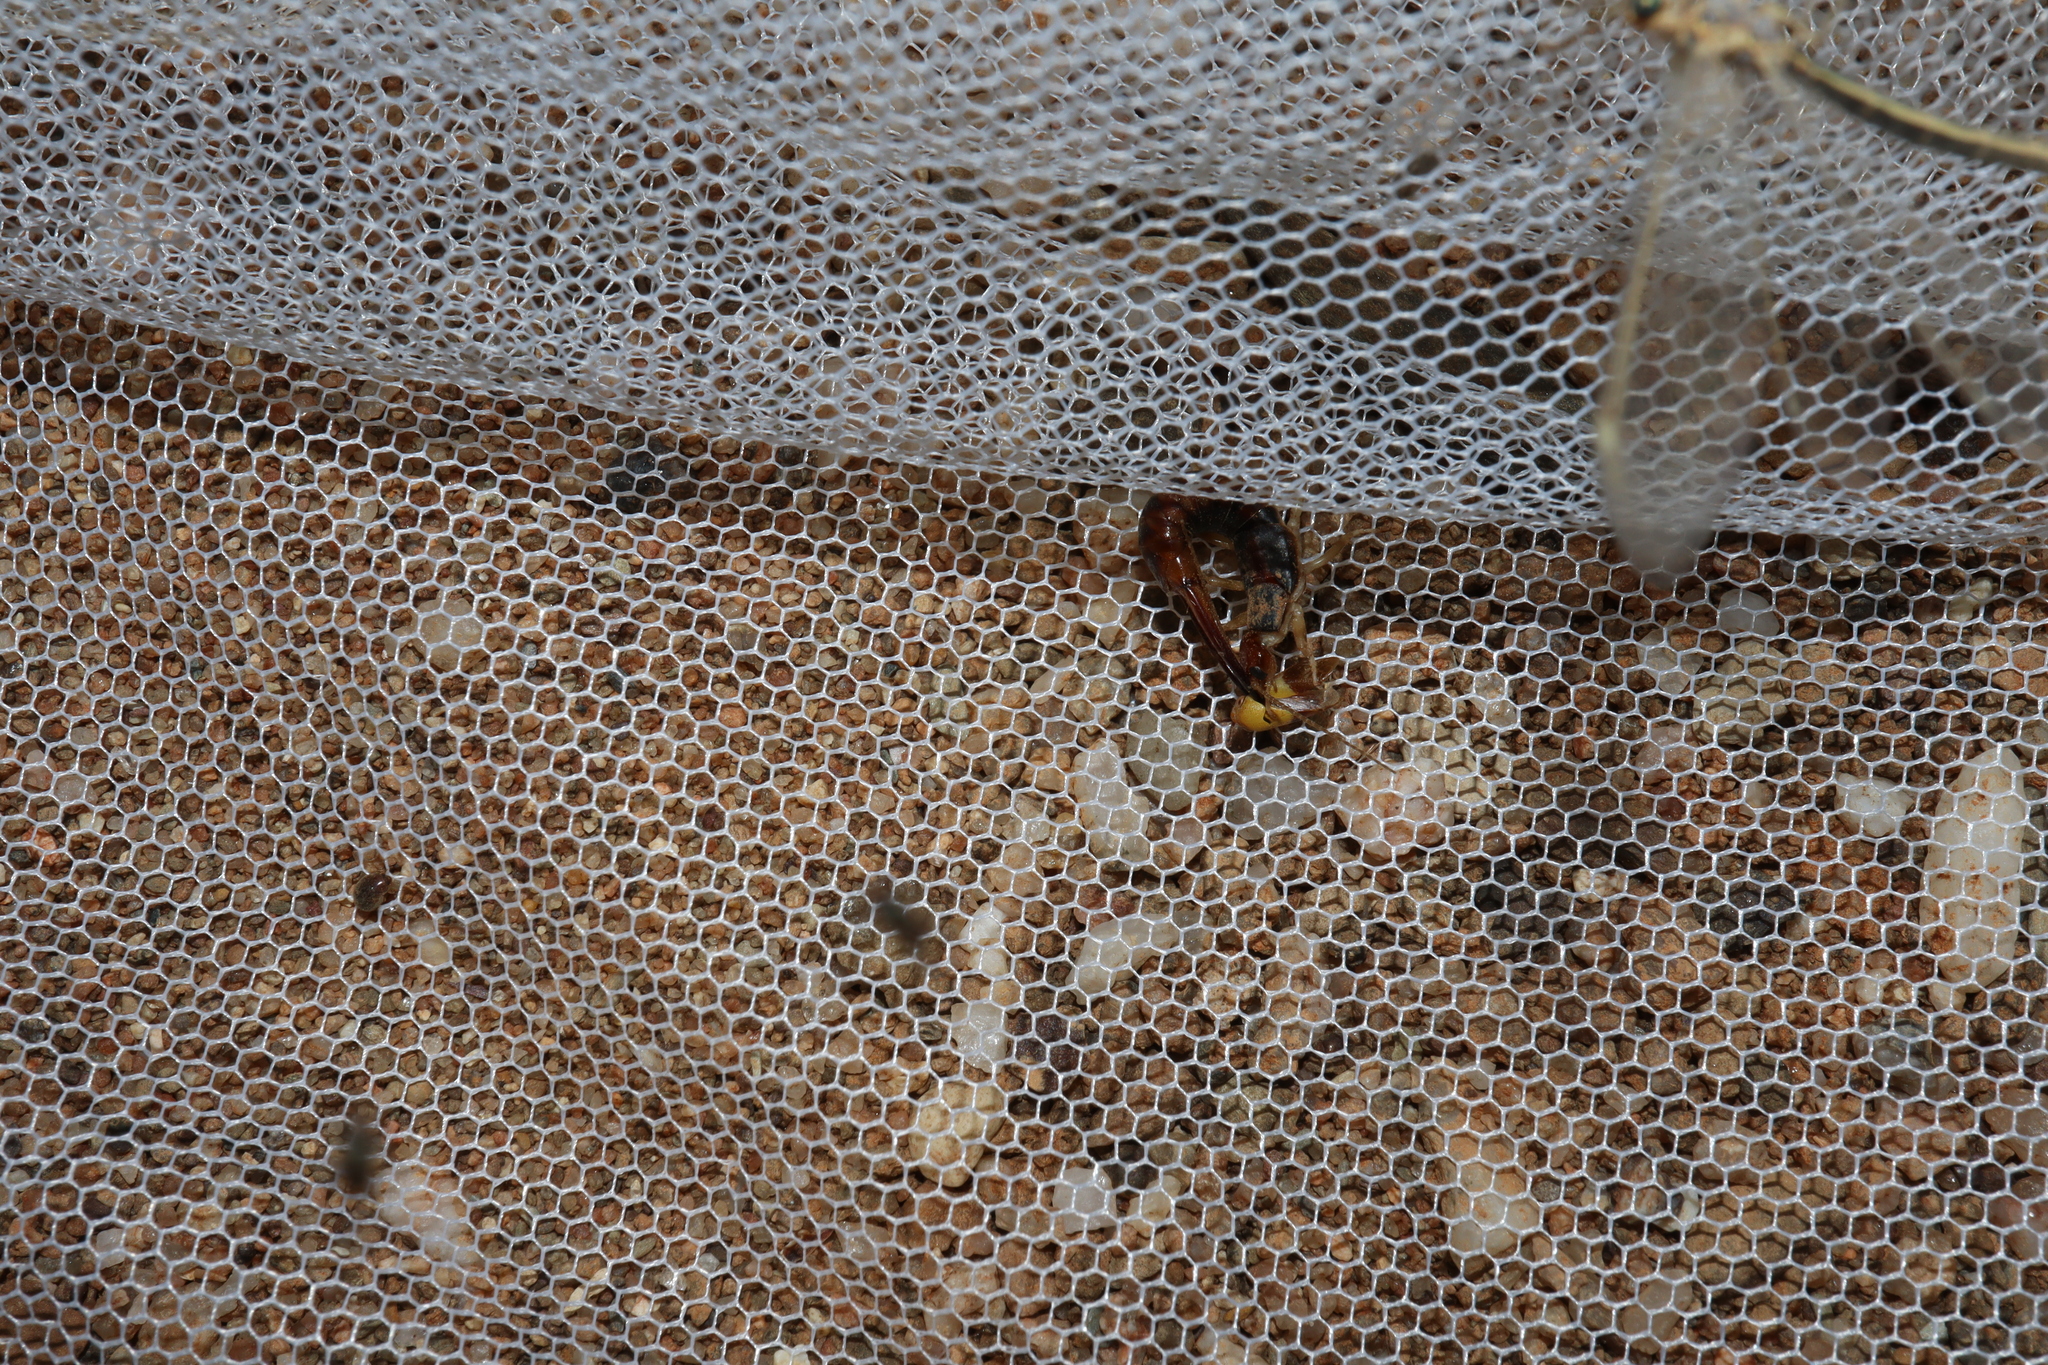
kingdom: Animalia
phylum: Arthropoda
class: Insecta
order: Dermaptera
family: Labiduridae
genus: Labidura
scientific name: Labidura riparia
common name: Striped earwig
